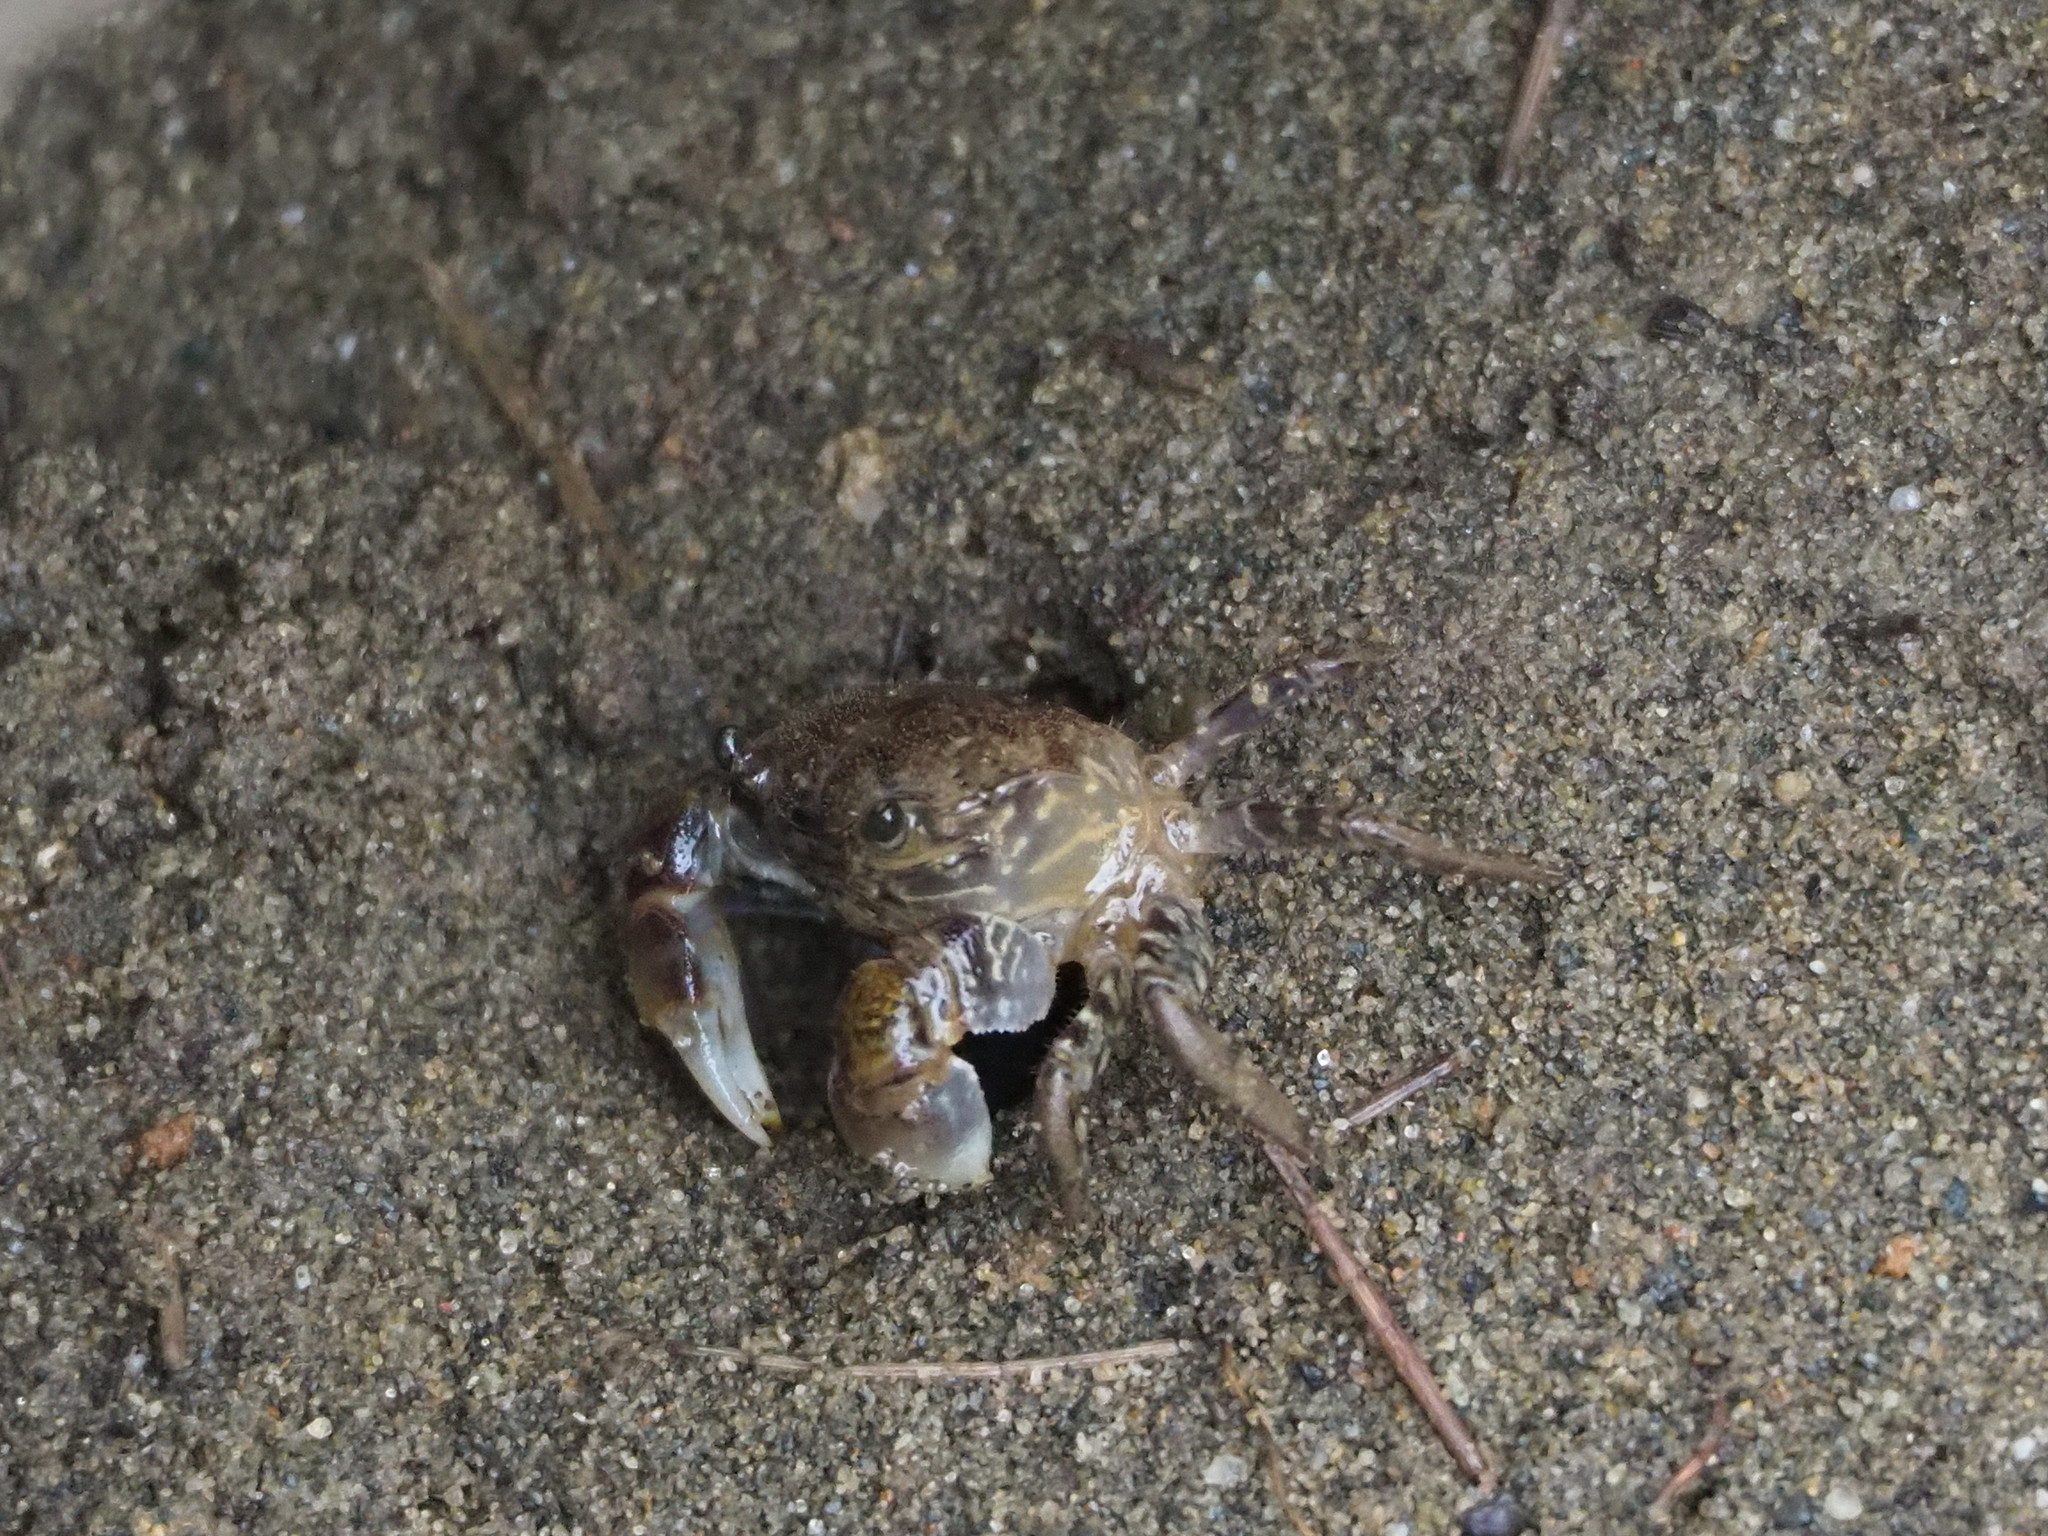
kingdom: Animalia
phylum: Arthropoda
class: Malacostraca
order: Decapoda
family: Varunidae
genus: Pseudohelice
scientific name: Pseudohelice subquadrata
